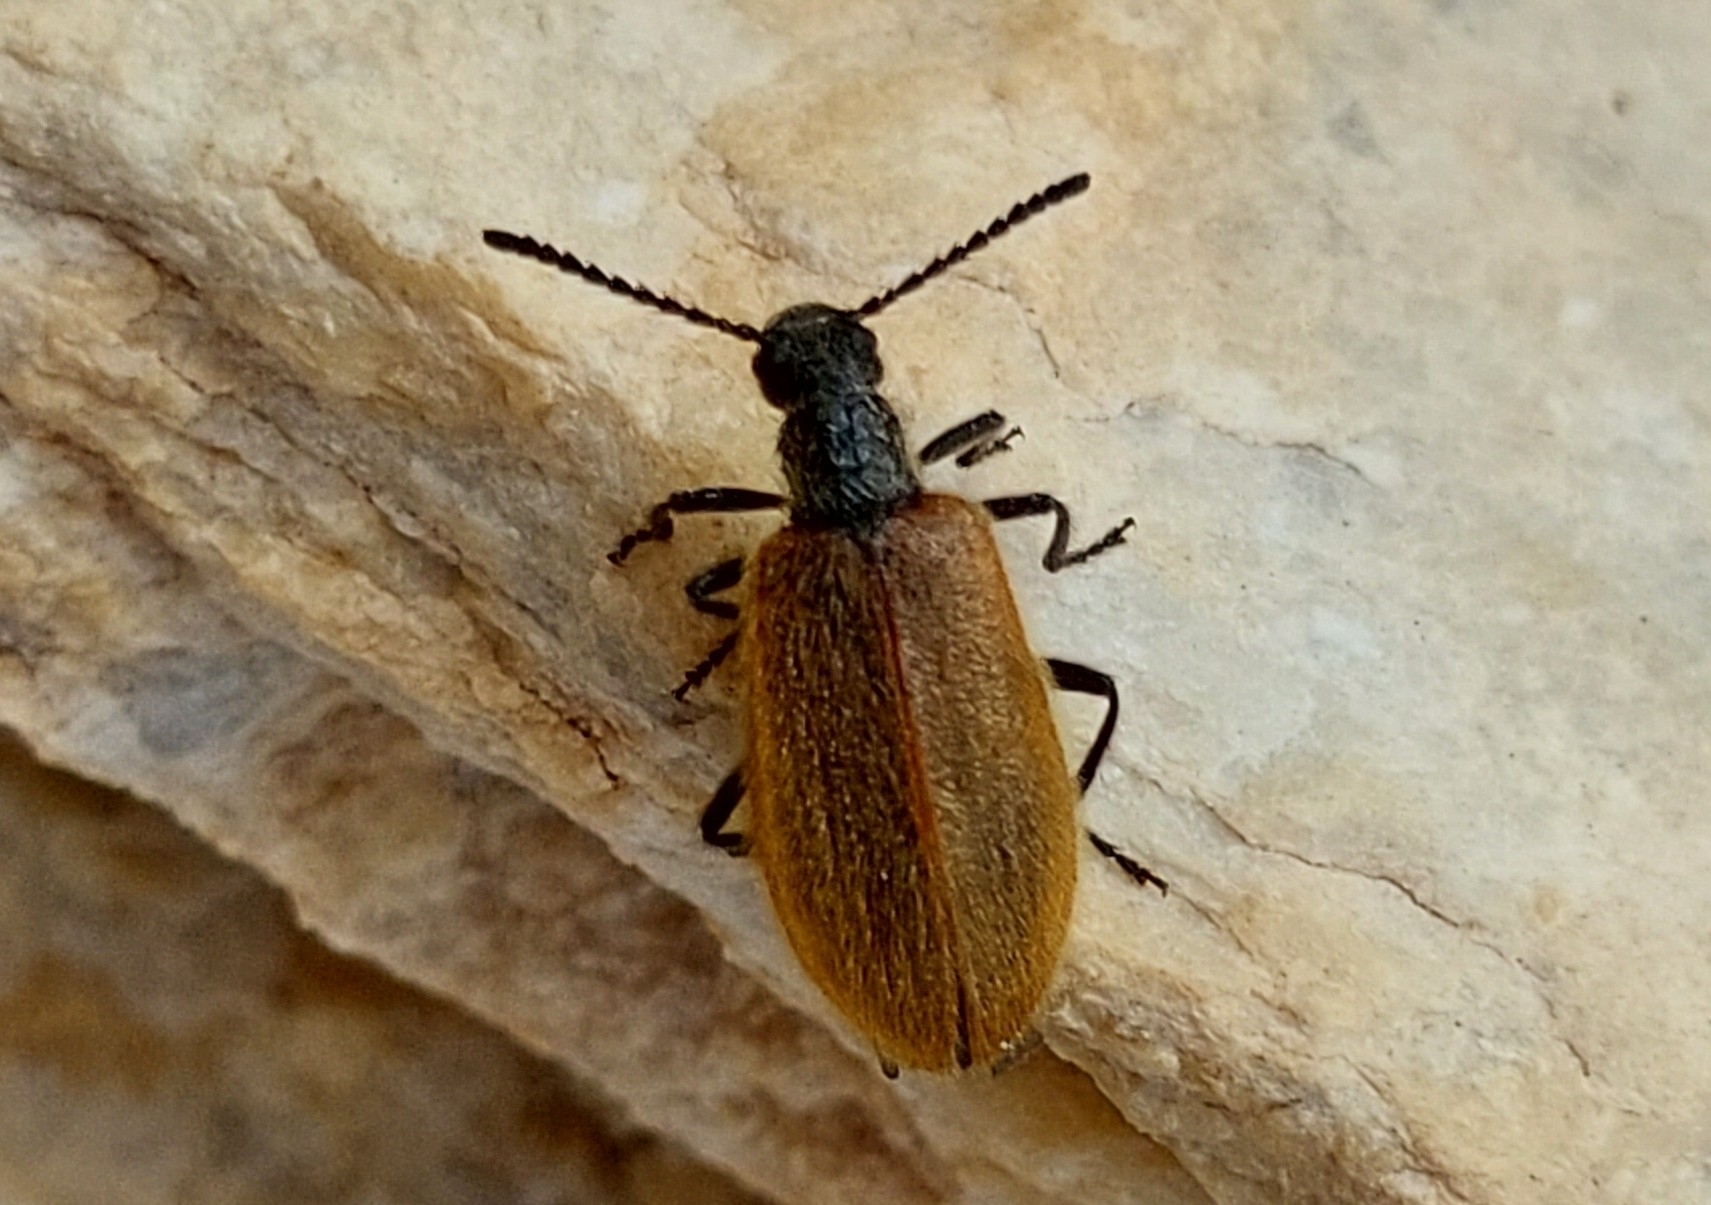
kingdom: Animalia
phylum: Arthropoda
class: Insecta
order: Coleoptera
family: Tenebrionidae
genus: Lagria
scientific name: Lagria hirta
